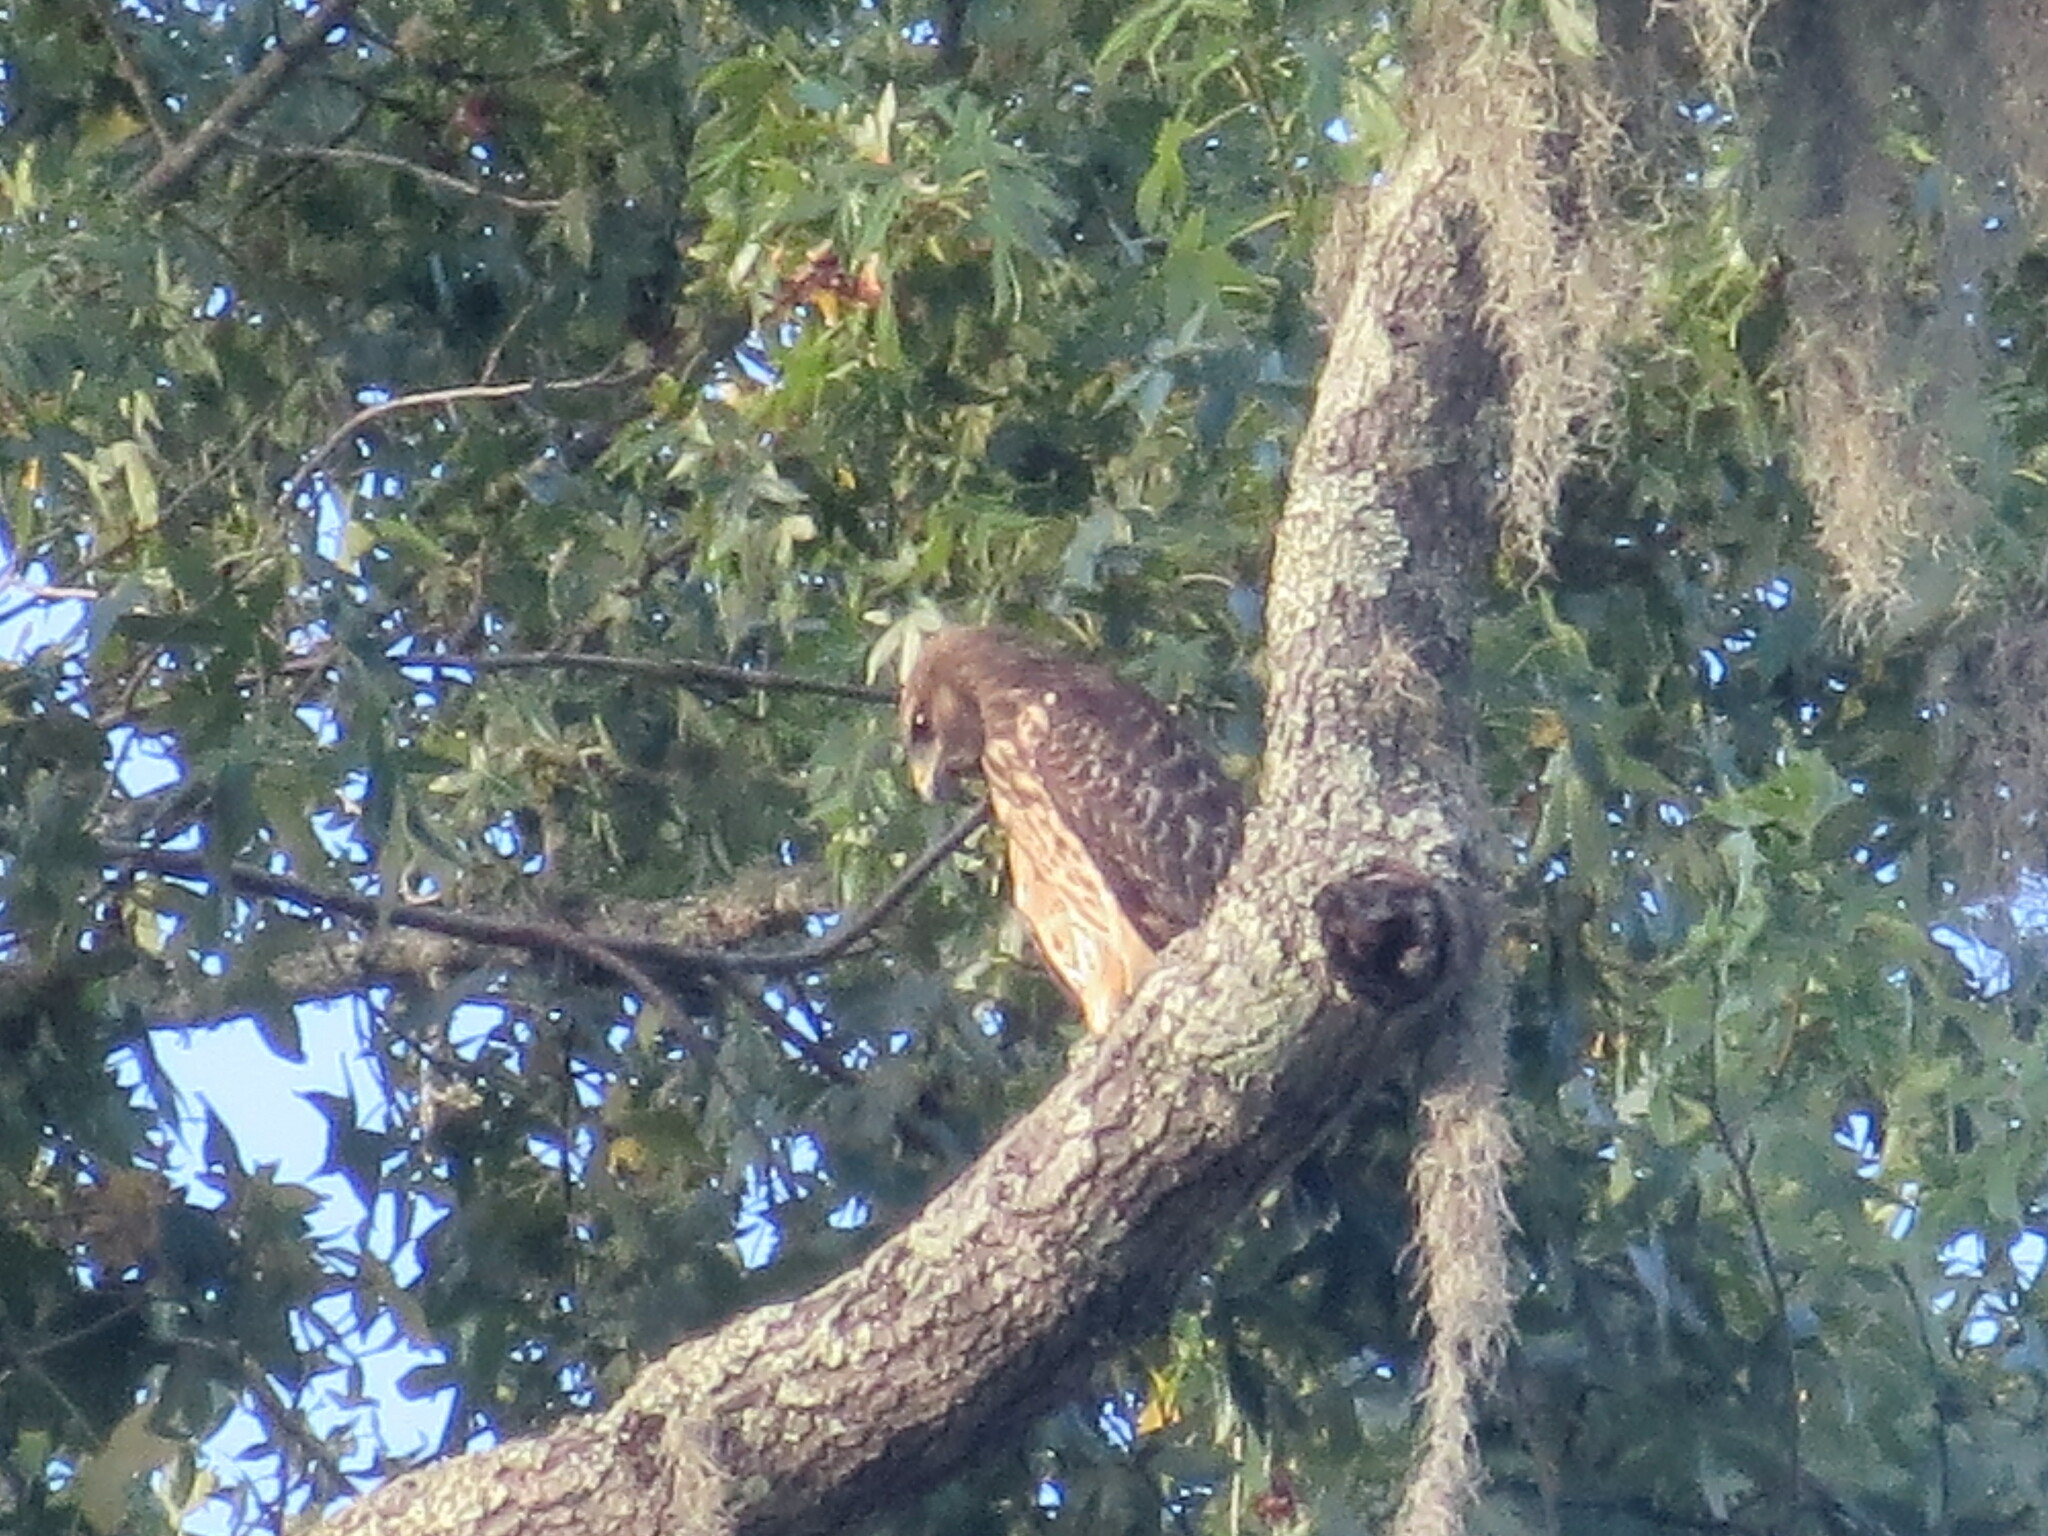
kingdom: Animalia
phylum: Chordata
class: Aves
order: Accipitriformes
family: Accipitridae
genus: Buteo
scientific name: Buteo lineatus
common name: Red-shouldered hawk
